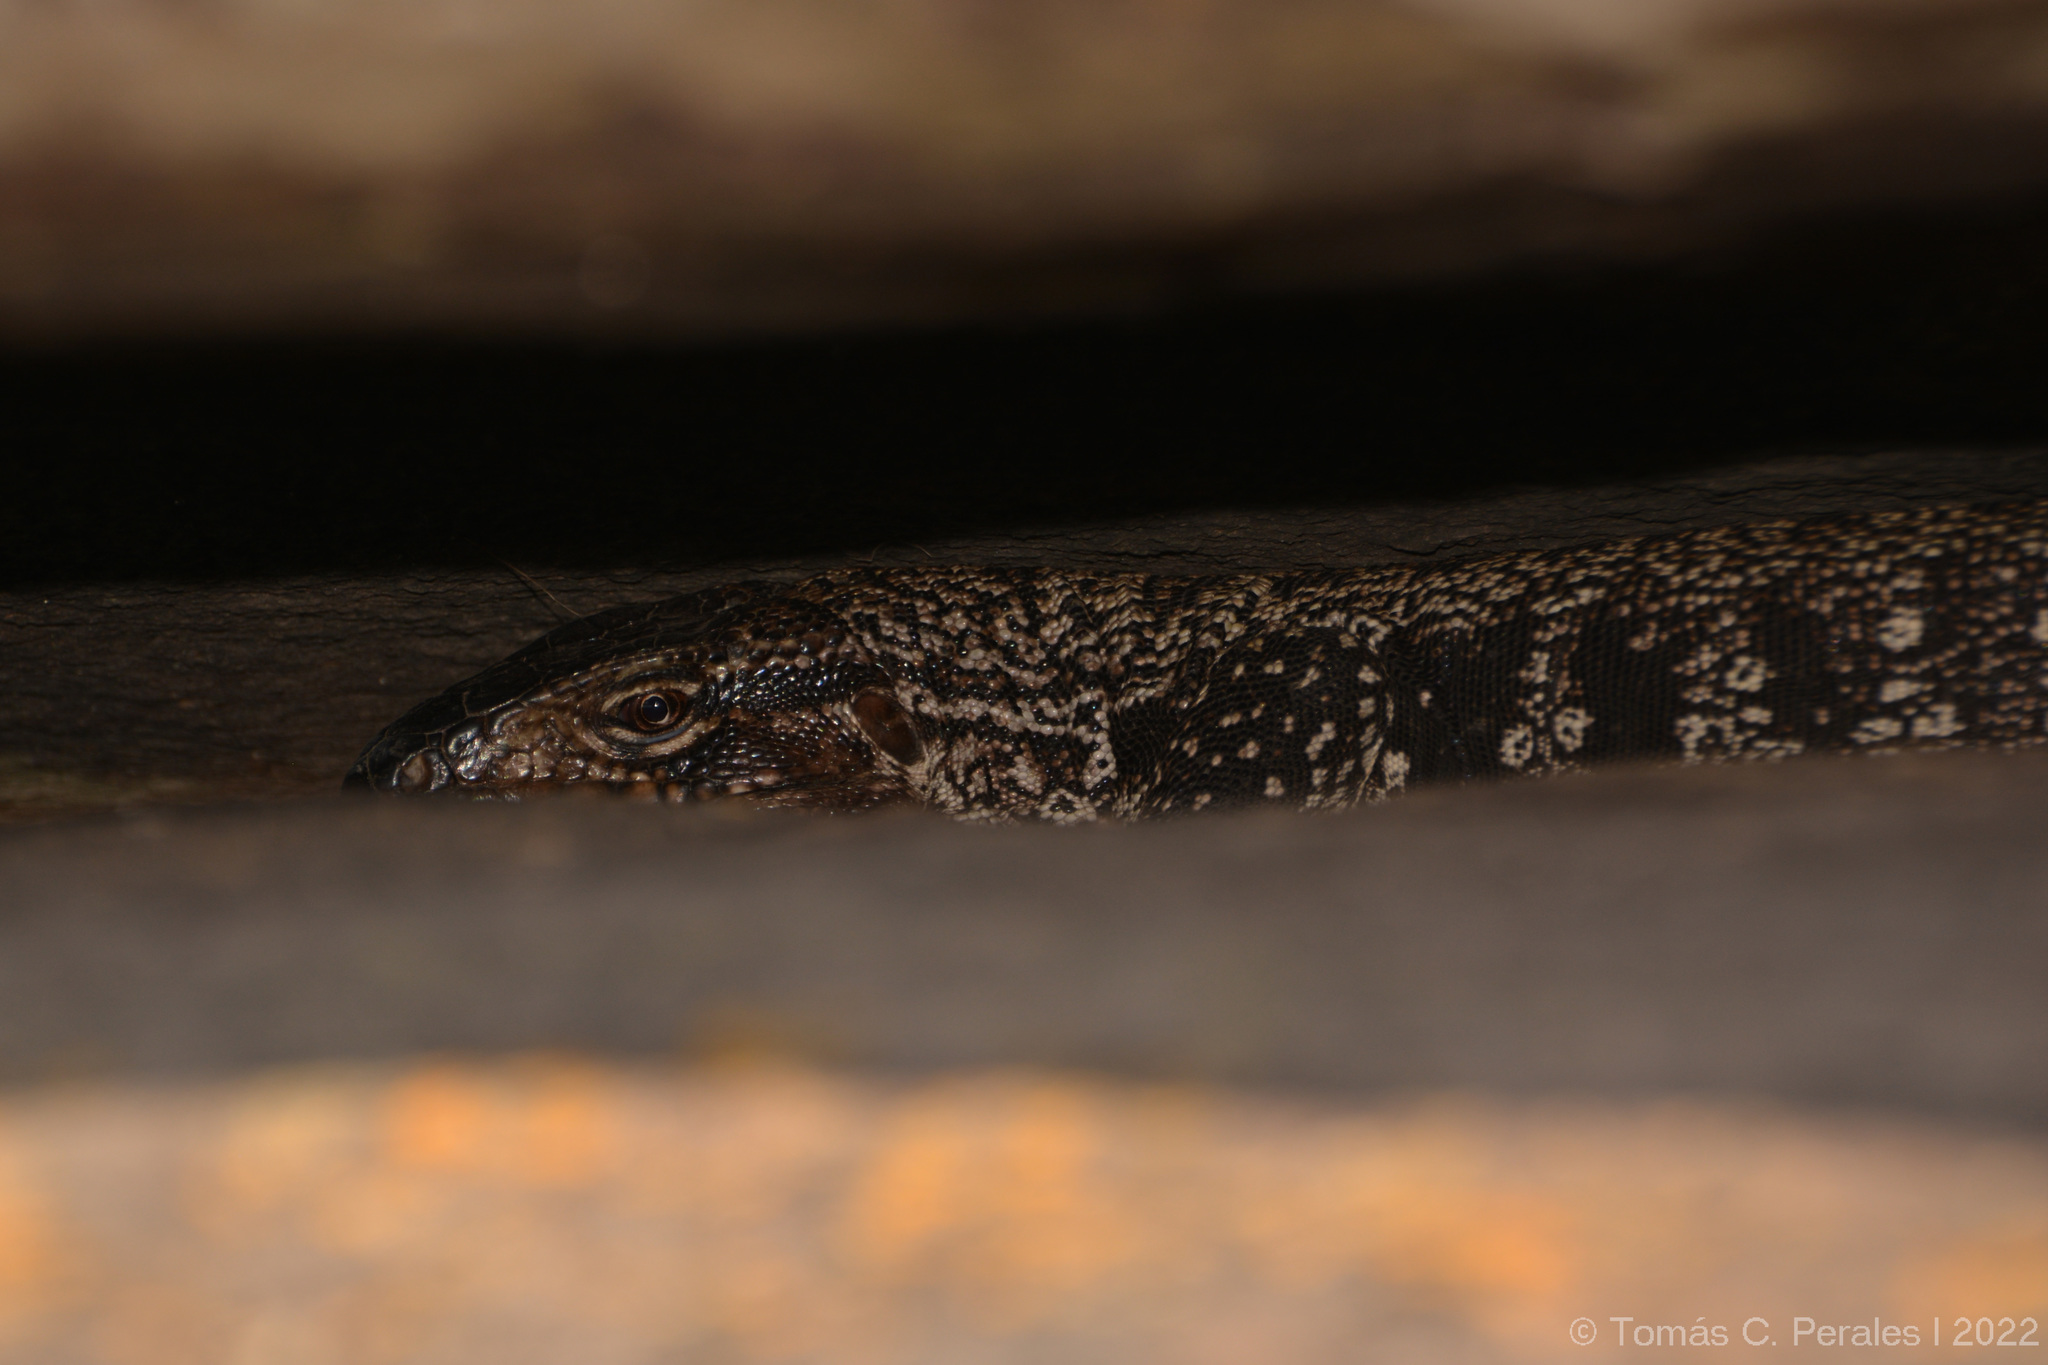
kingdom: Animalia
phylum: Chordata
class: Squamata
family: Teiidae
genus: Salvator
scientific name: Salvator merianae
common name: Argentine black and white tegu
